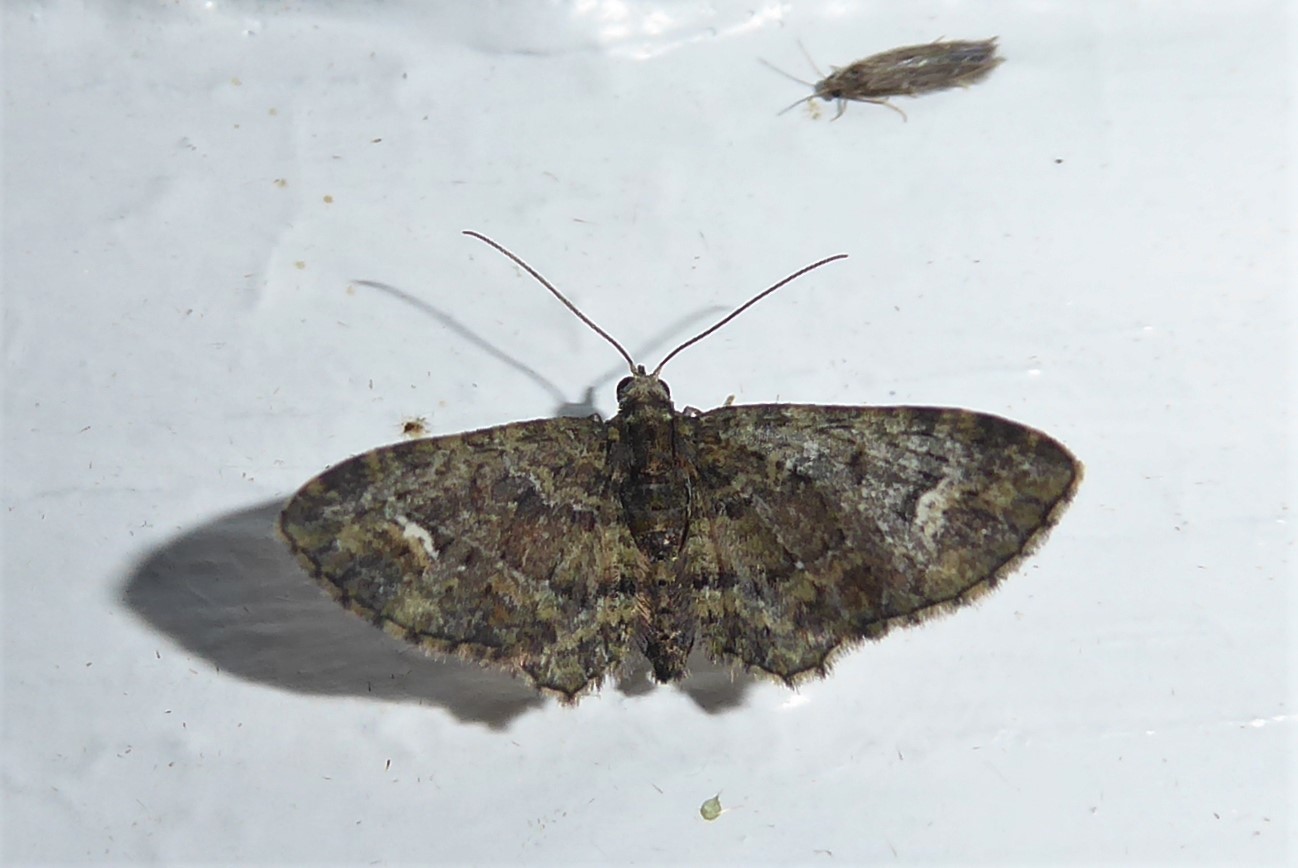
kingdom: Animalia
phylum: Arthropoda
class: Insecta
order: Lepidoptera
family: Geometridae
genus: Pasiphilodes
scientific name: Pasiphilodes testulata
